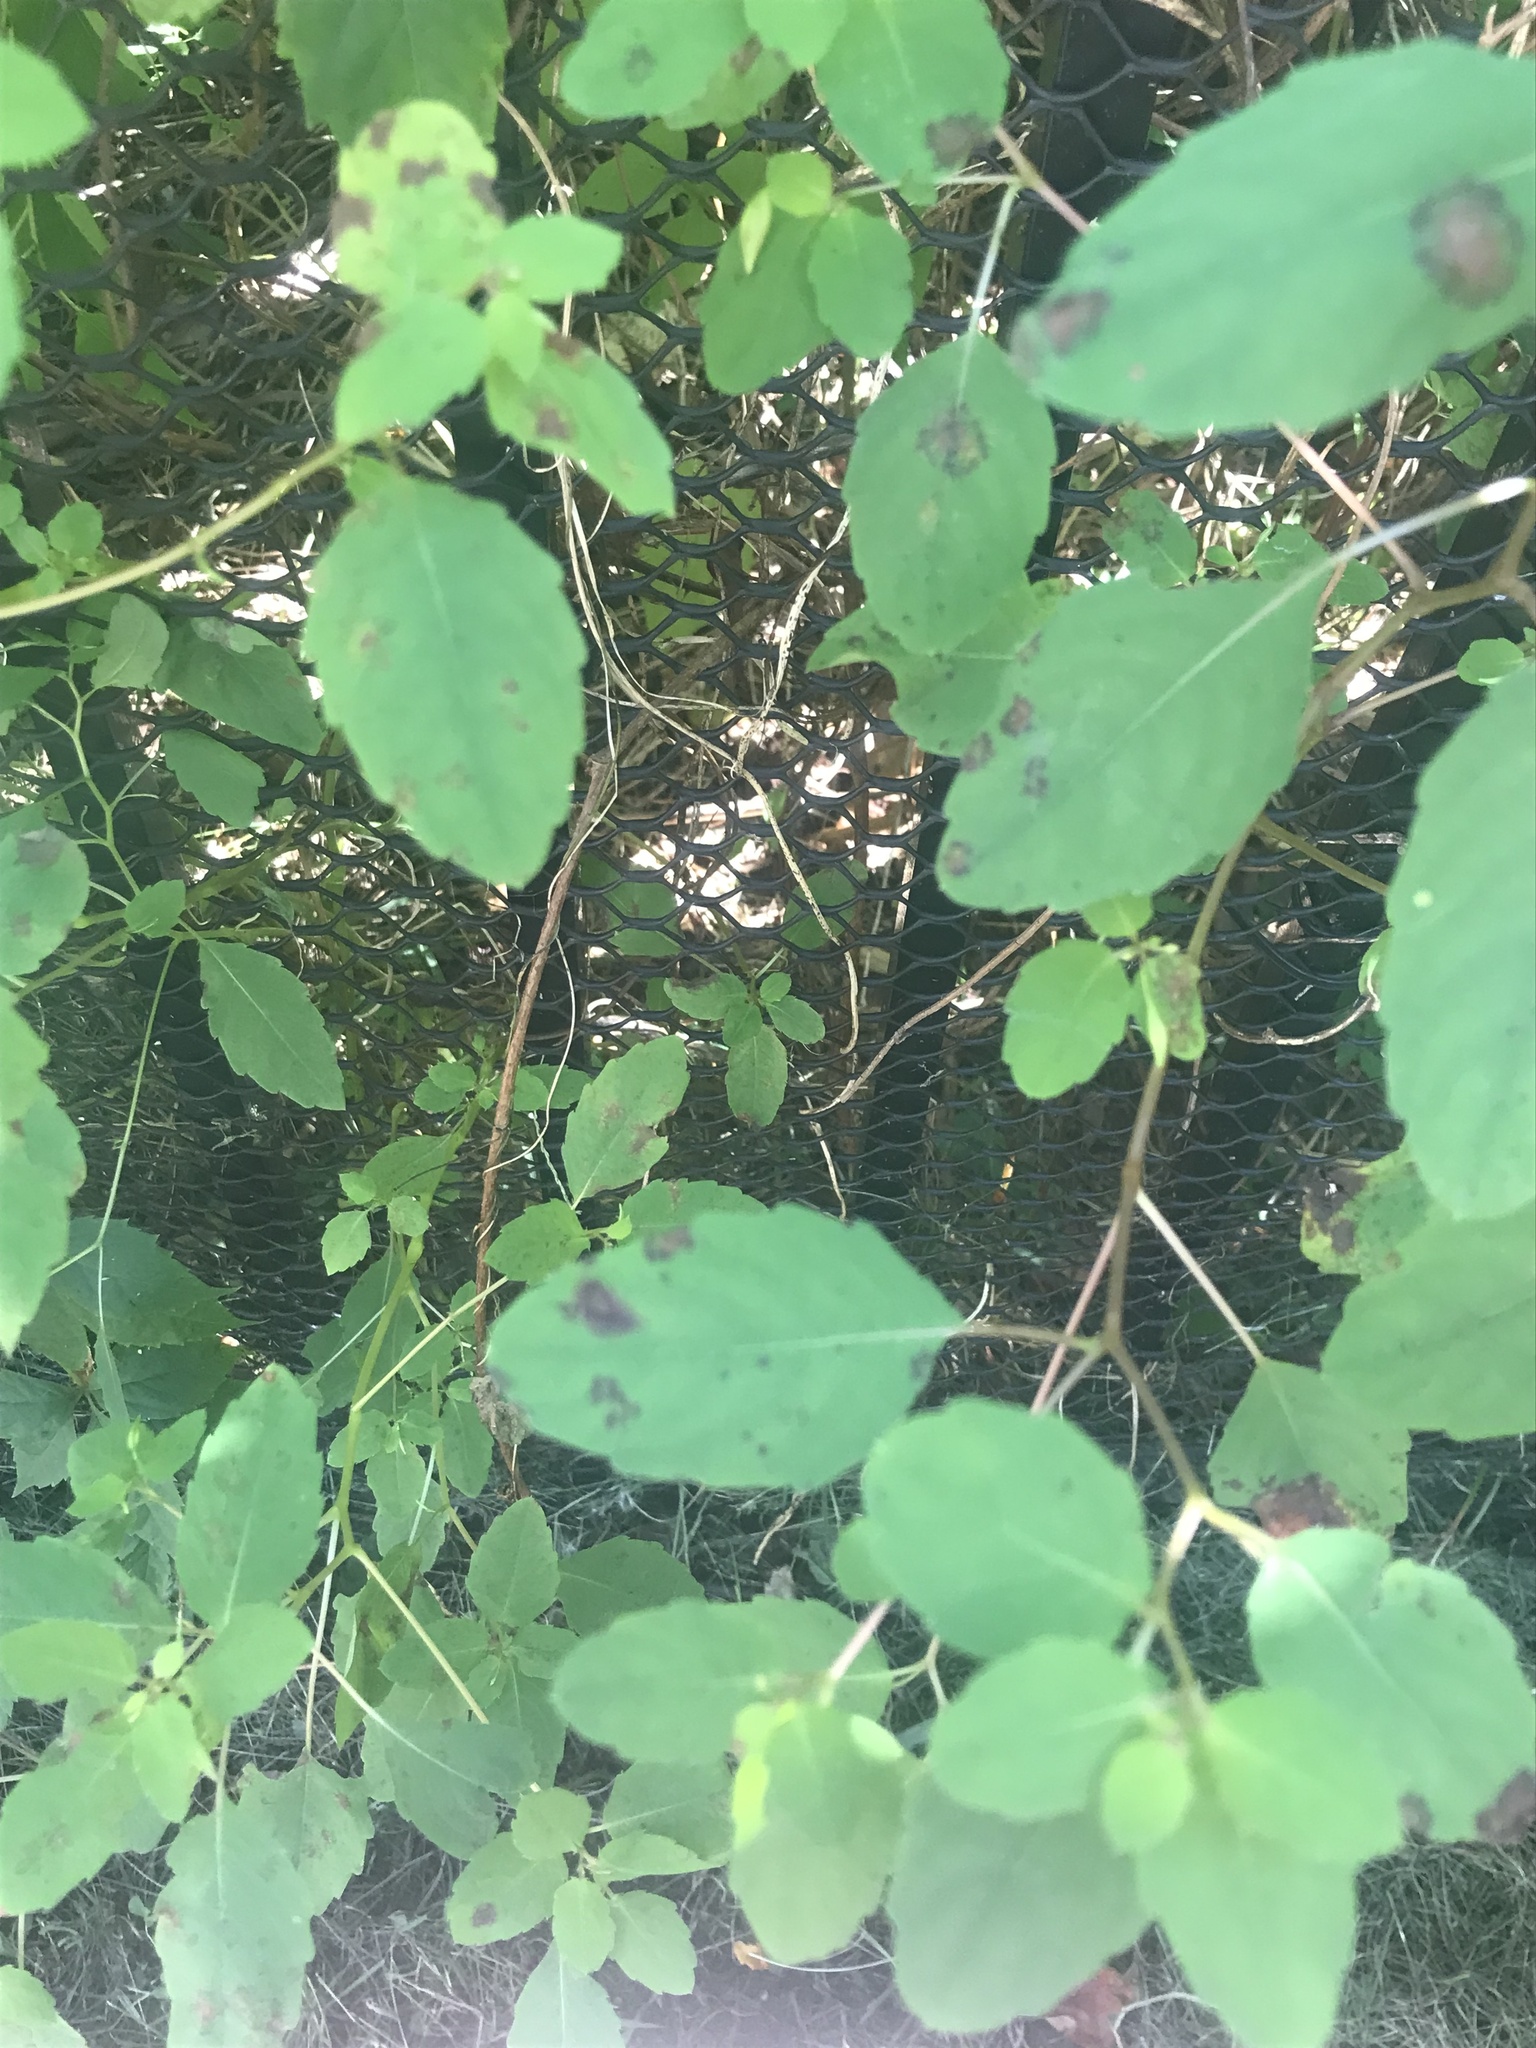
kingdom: Plantae
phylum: Tracheophyta
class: Magnoliopsida
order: Ericales
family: Balsaminaceae
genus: Impatiens
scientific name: Impatiens capensis
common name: Orange balsam
